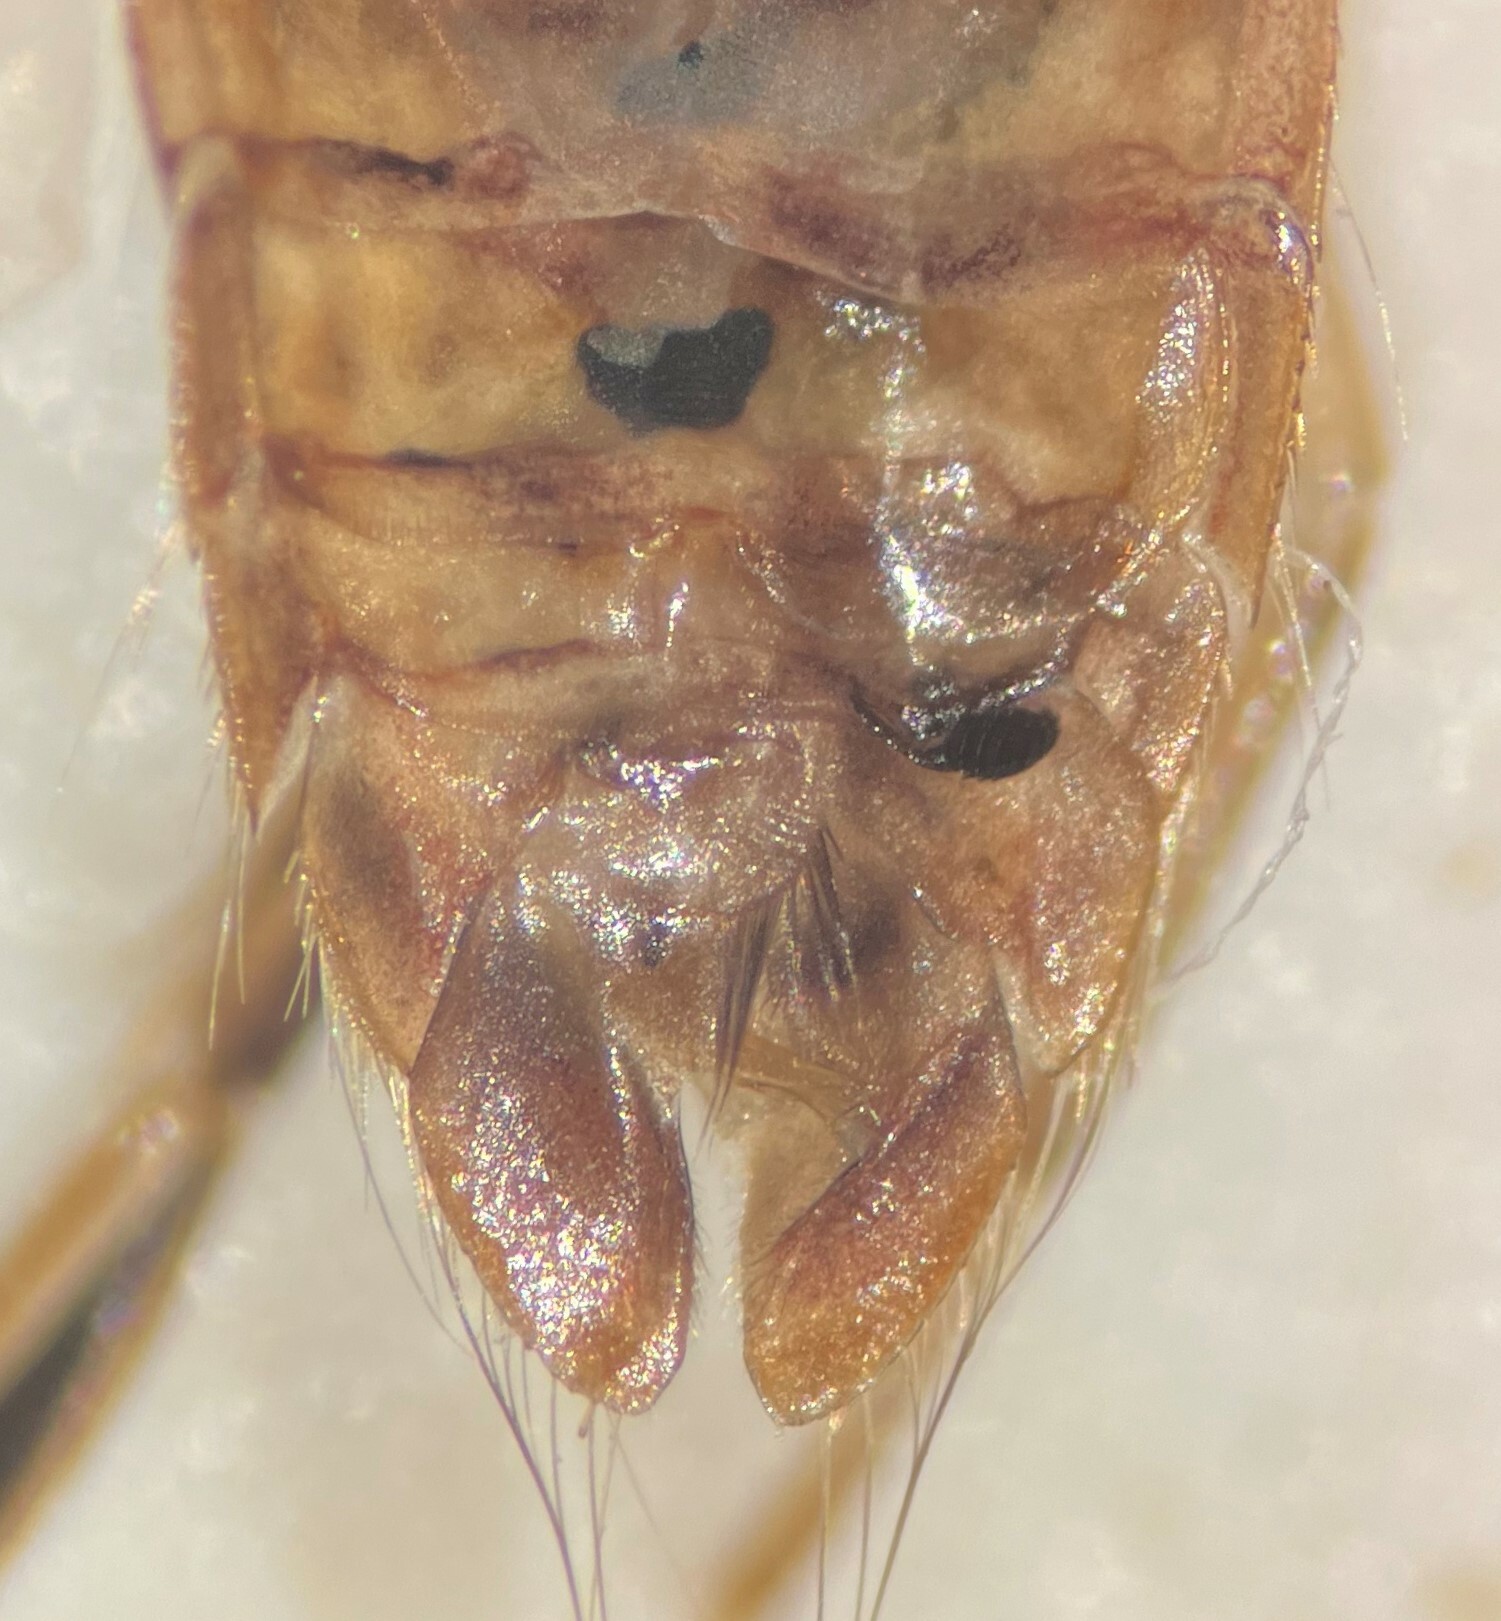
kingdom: Animalia
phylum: Arthropoda
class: Insecta
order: Hemiptera
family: Corixidae
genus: Sigara
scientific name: Sigara johnstoni
